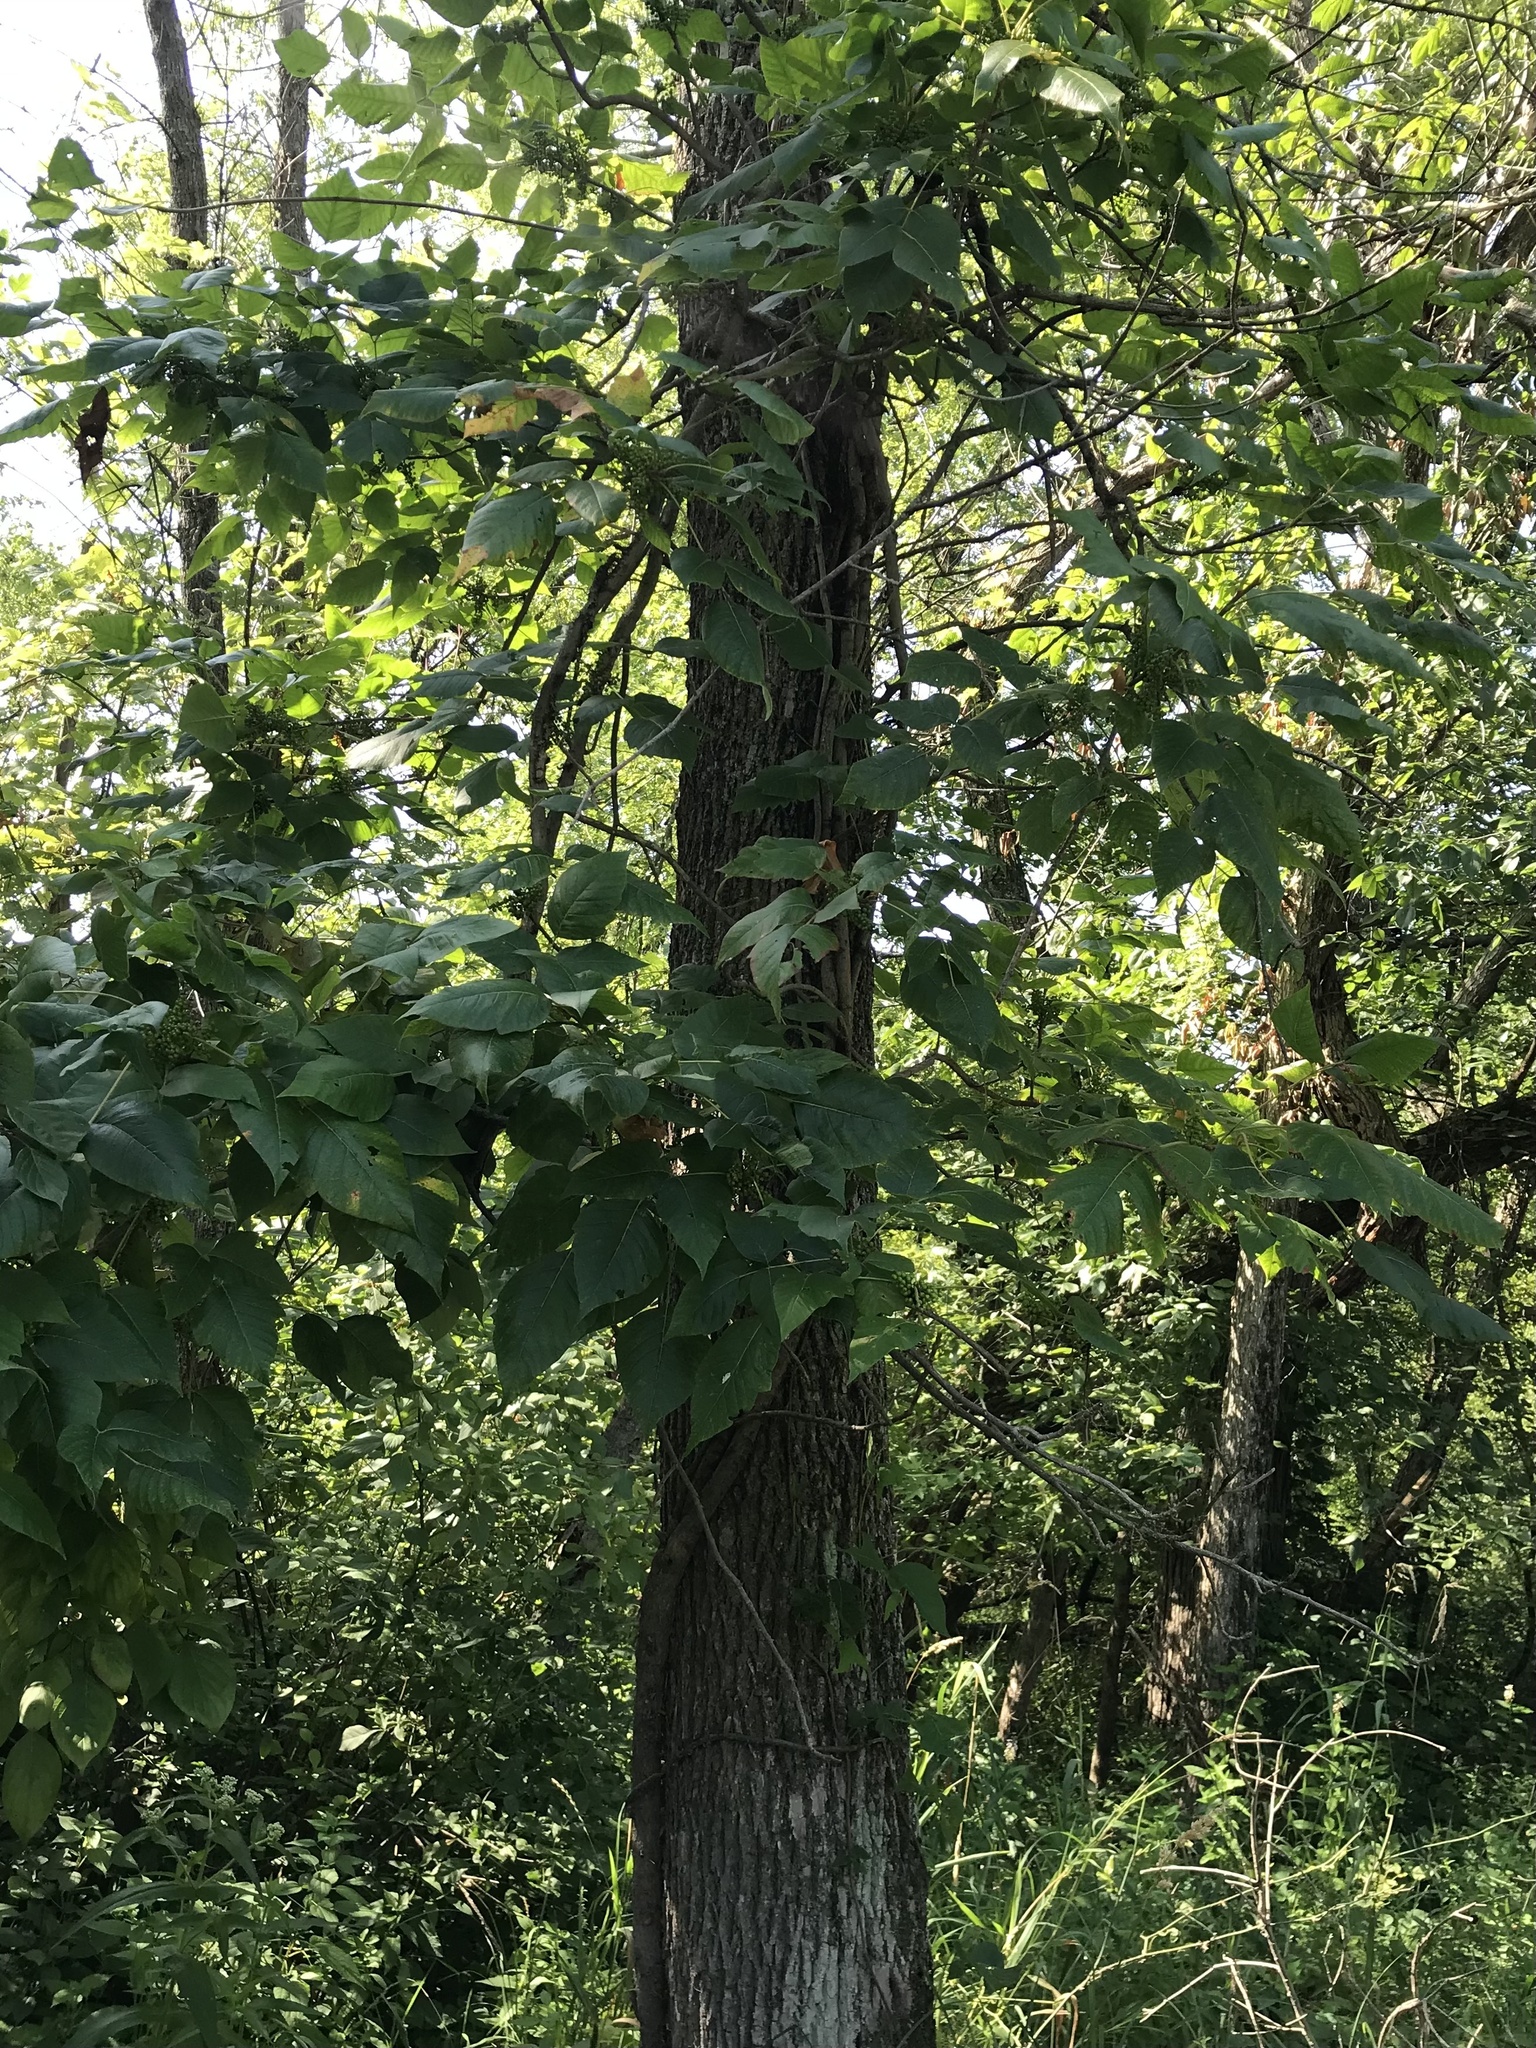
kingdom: Plantae
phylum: Tracheophyta
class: Magnoliopsida
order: Sapindales
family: Anacardiaceae
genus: Toxicodendron
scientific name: Toxicodendron radicans
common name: Poison ivy
